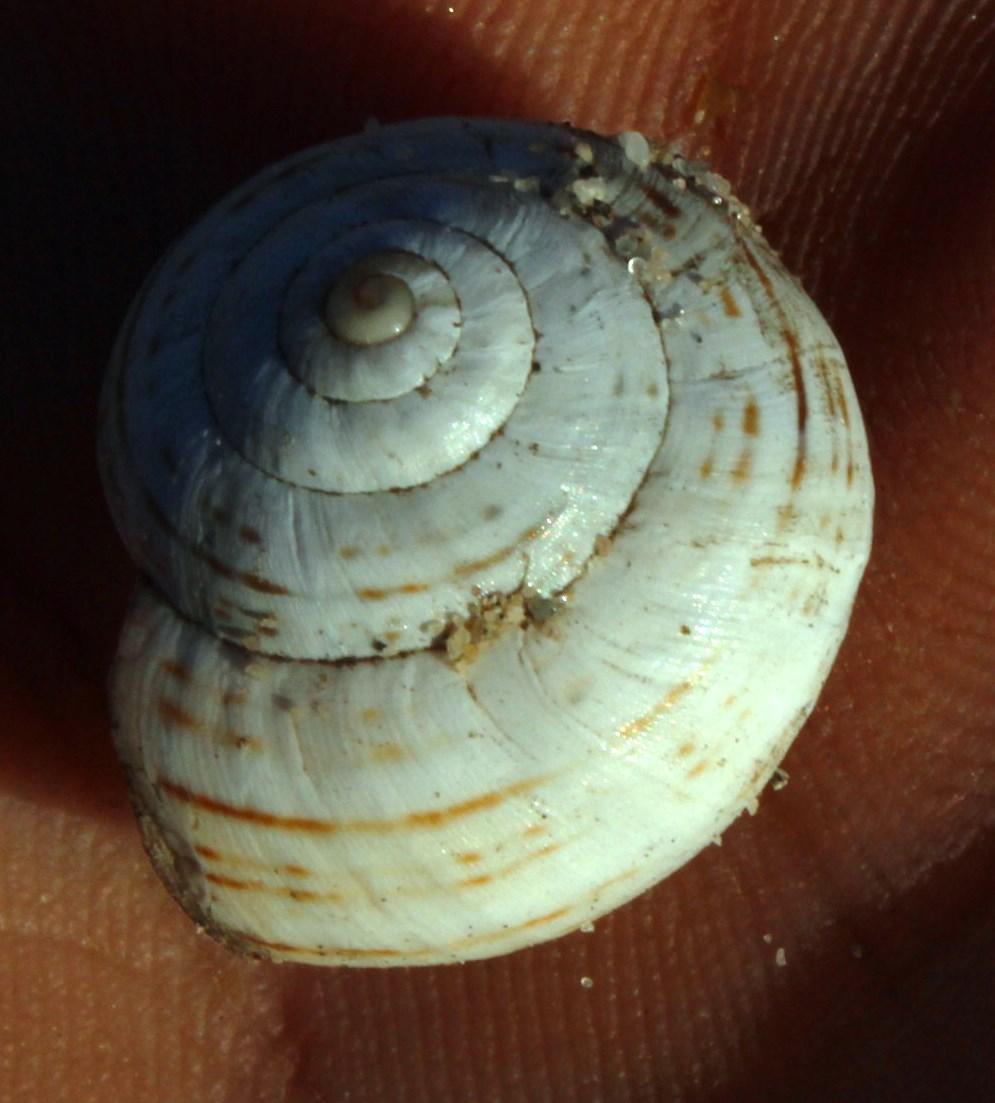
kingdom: Animalia
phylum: Mollusca
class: Gastropoda
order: Stylommatophora
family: Helicidae
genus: Theba
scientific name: Theba pisana
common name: White snail
